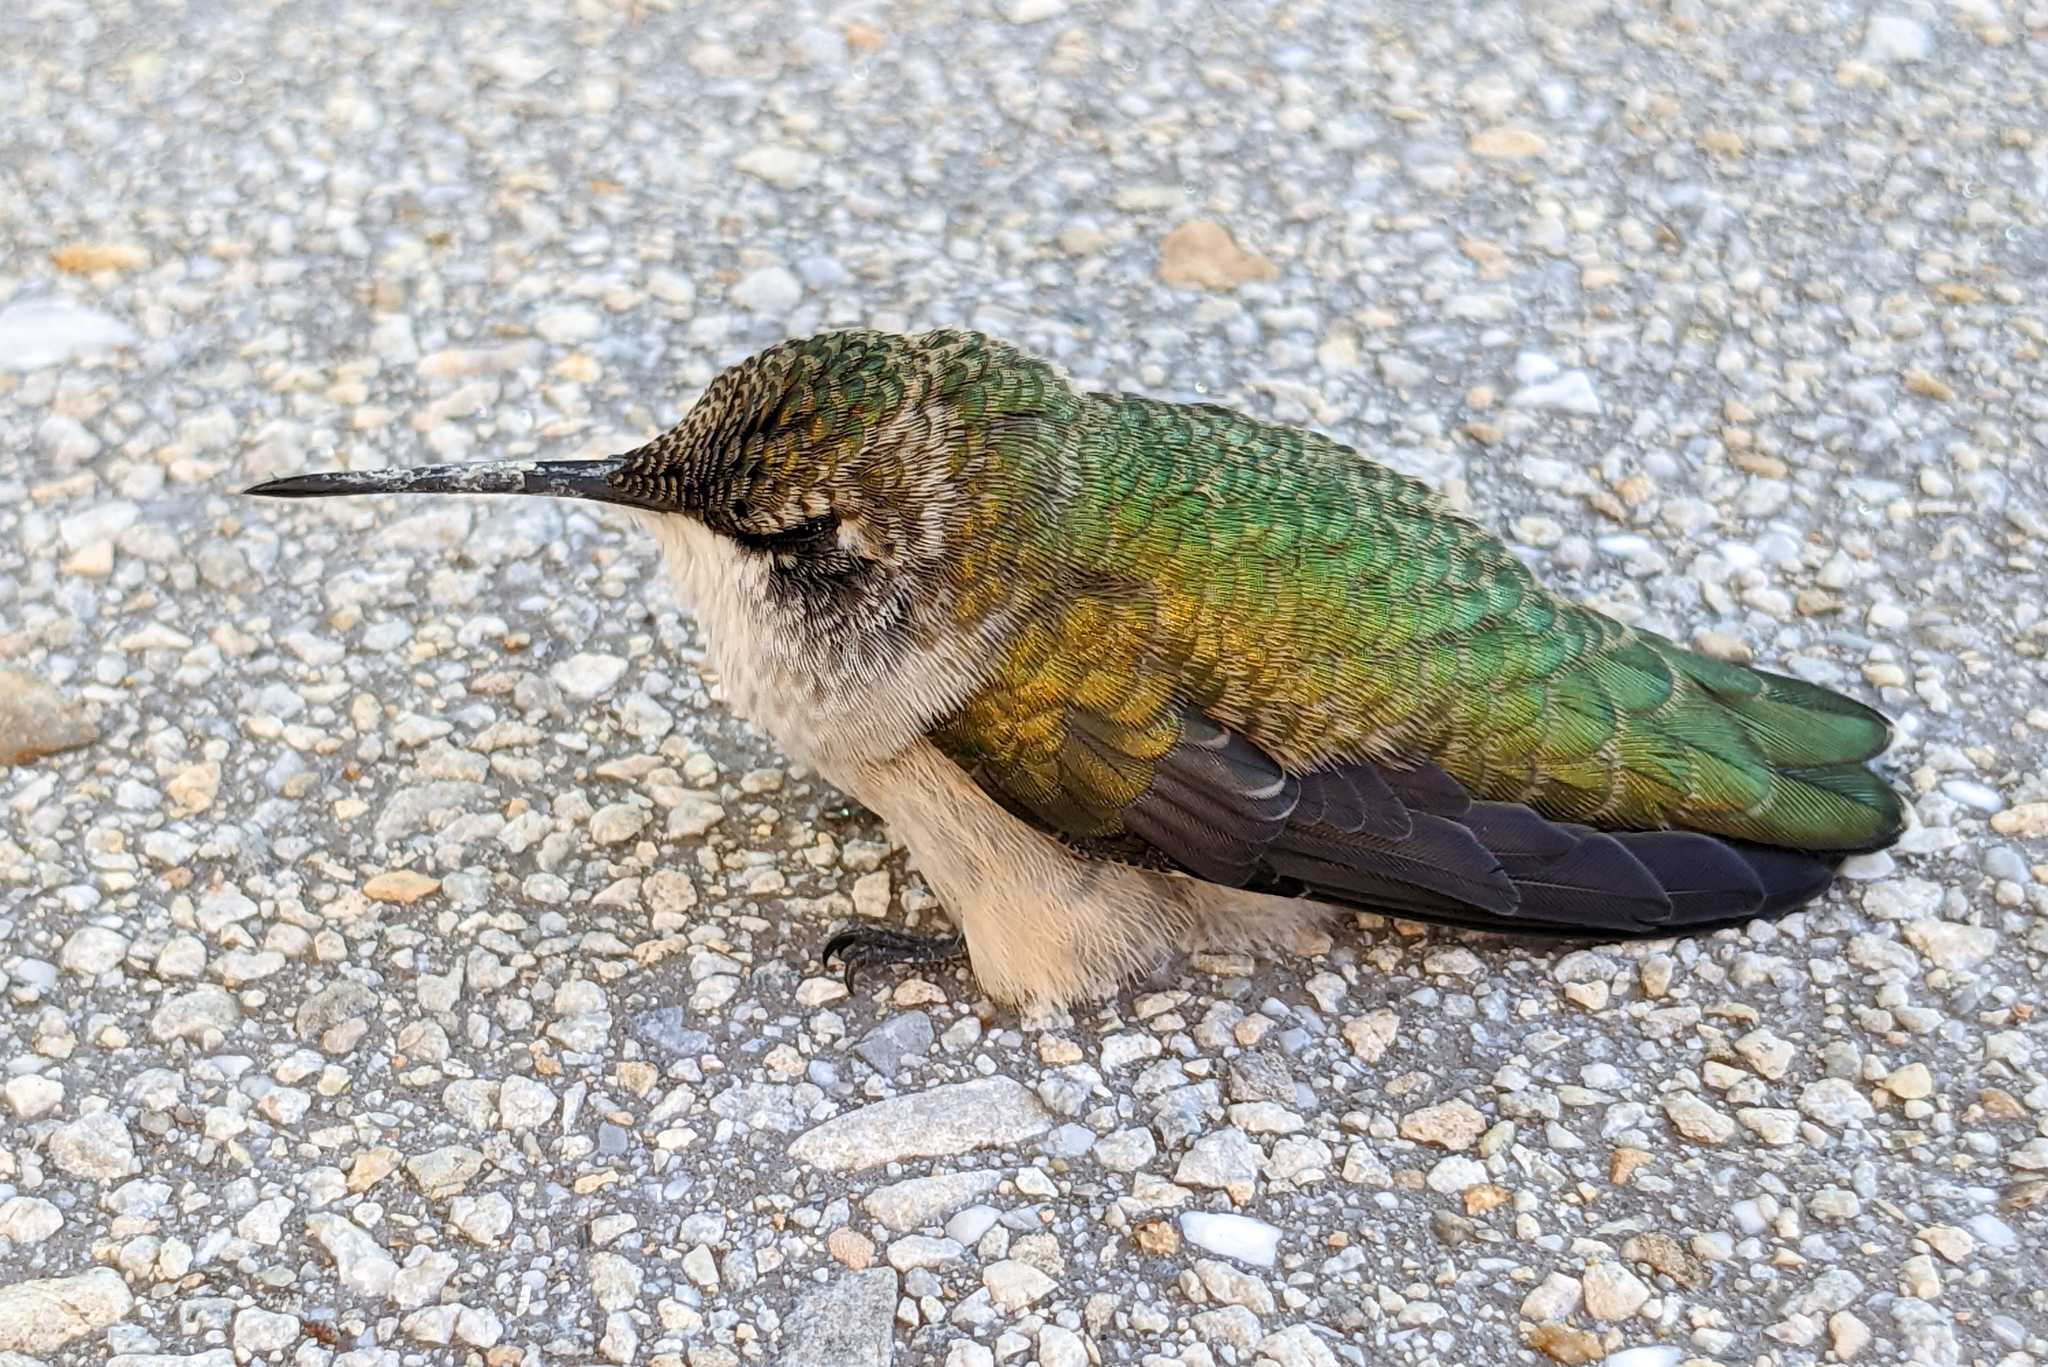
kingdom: Animalia
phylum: Chordata
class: Aves
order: Apodiformes
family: Trochilidae
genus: Archilochus
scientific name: Archilochus colubris
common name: Ruby-throated hummingbird
